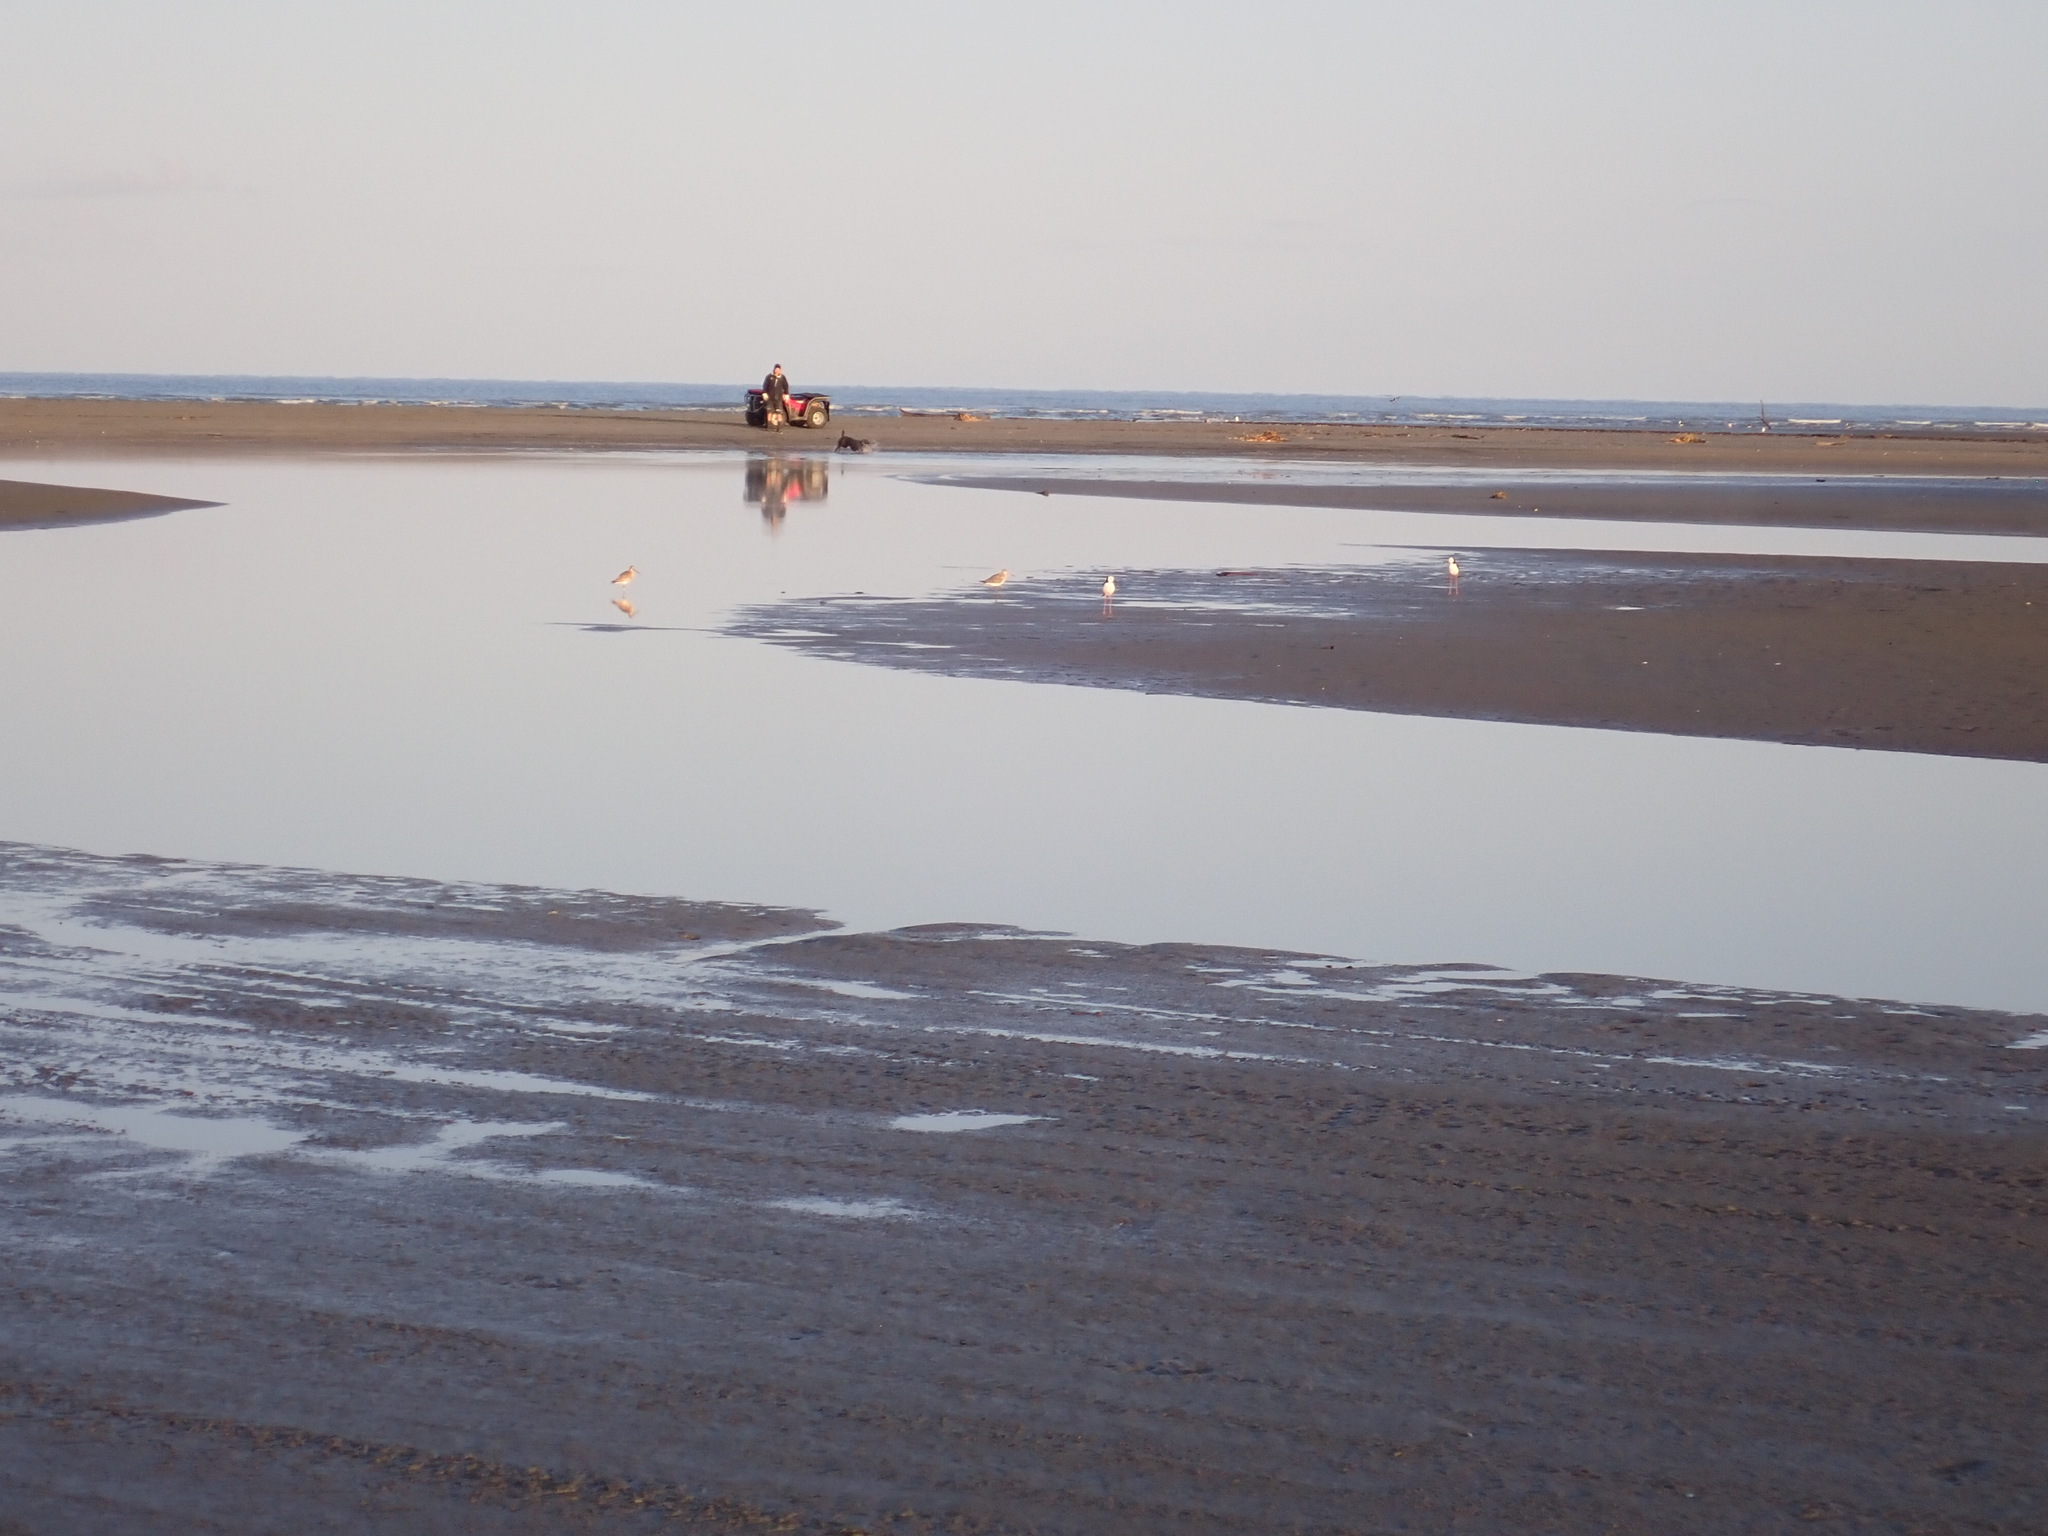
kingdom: Animalia
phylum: Chordata
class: Aves
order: Charadriiformes
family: Recurvirostridae
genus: Himantopus
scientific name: Himantopus leucocephalus
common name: White-headed stilt
